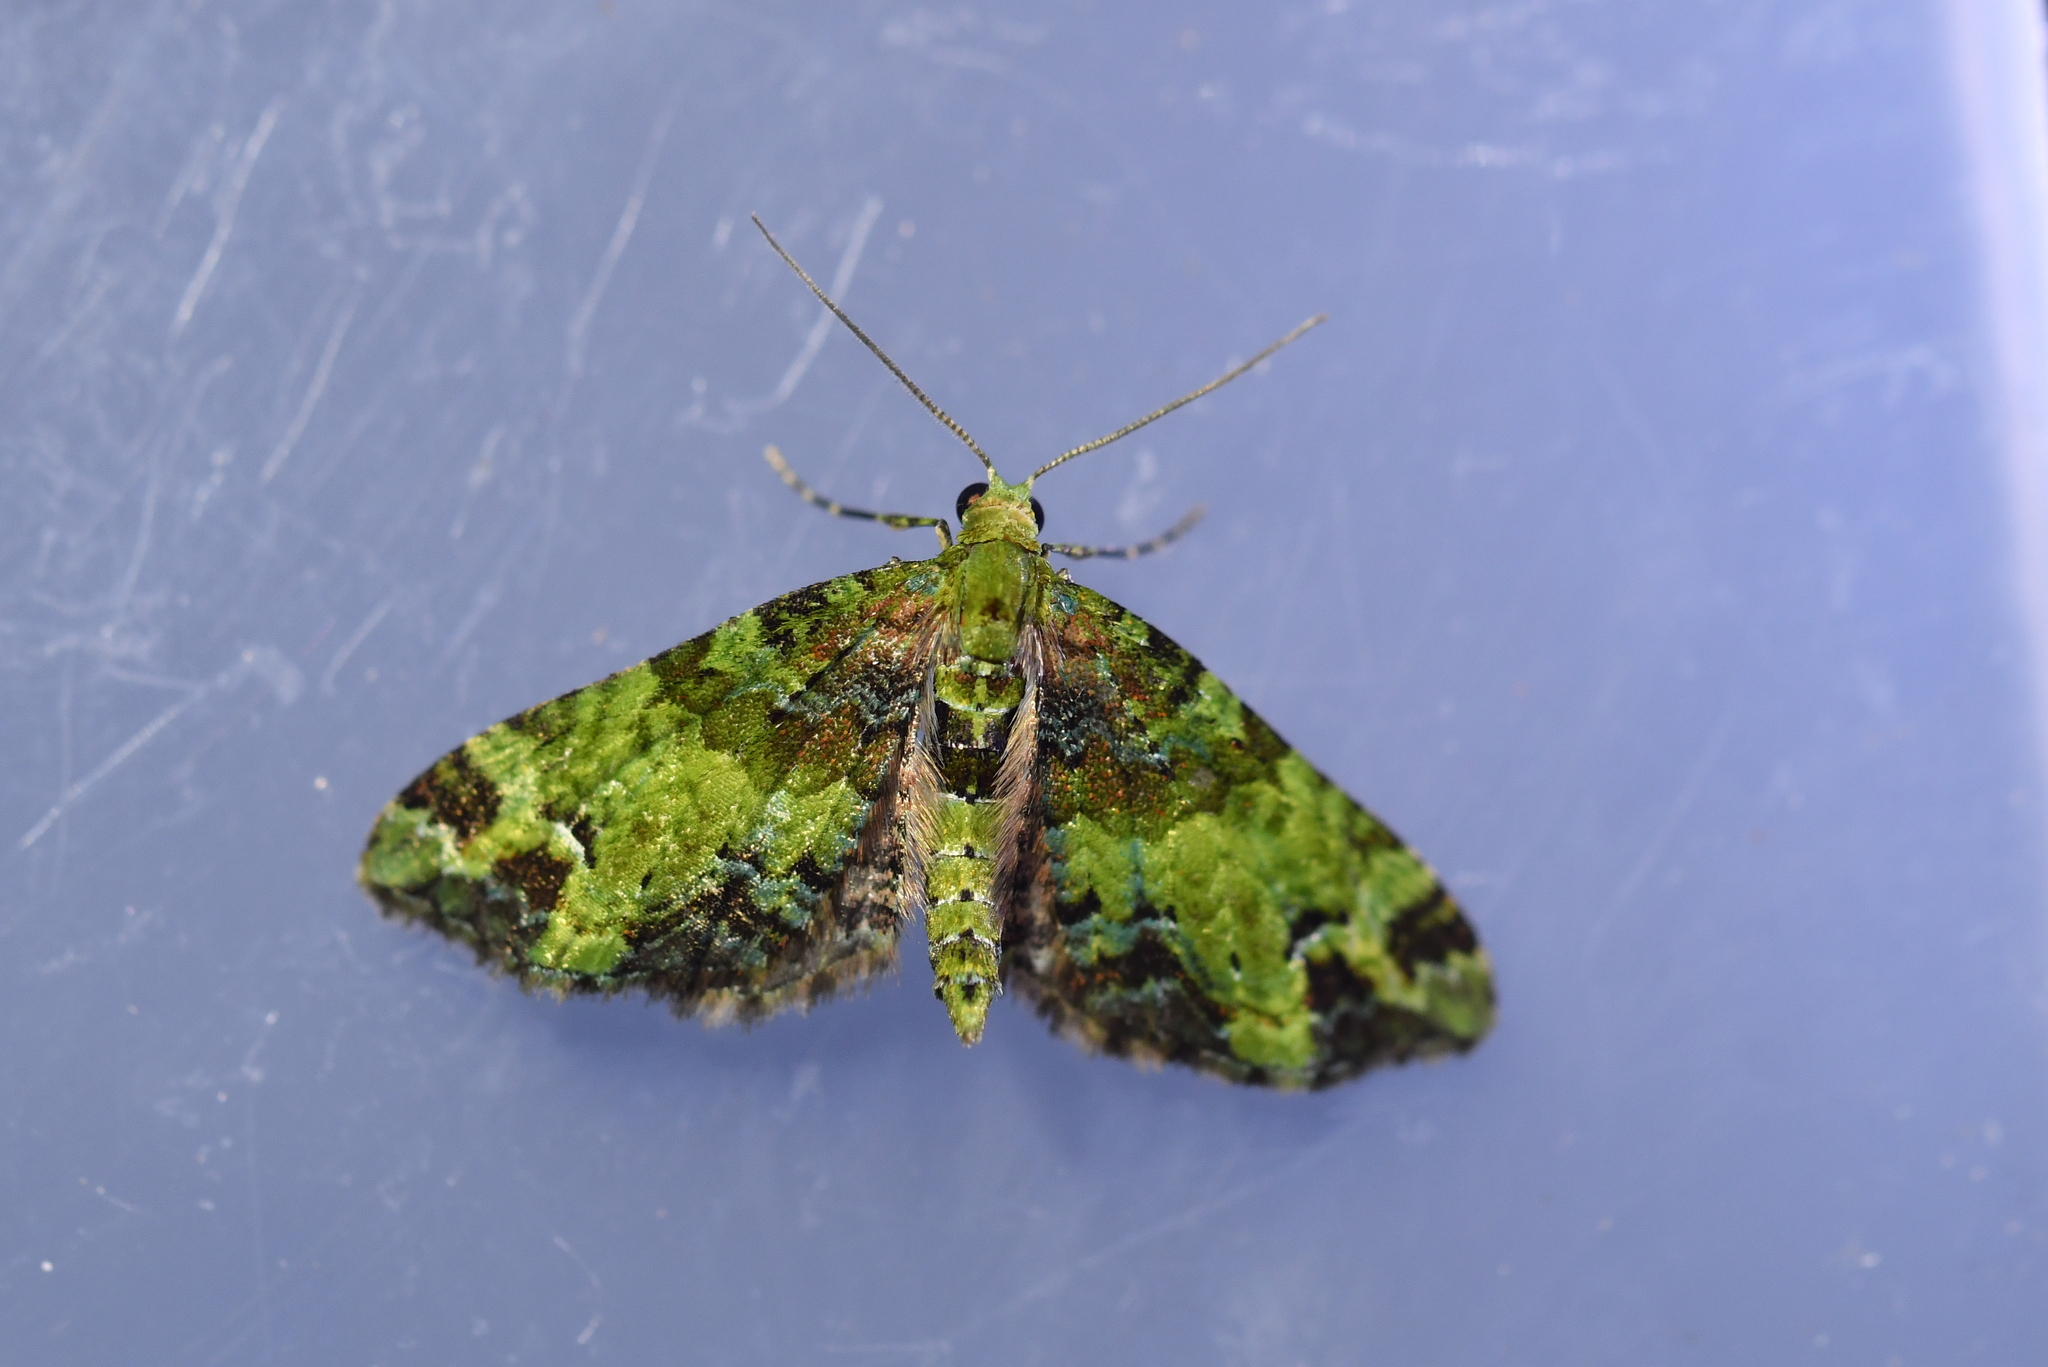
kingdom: Animalia
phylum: Arthropoda
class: Insecta
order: Lepidoptera
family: Geometridae
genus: Pasiphila
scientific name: Pasiphila malachita
